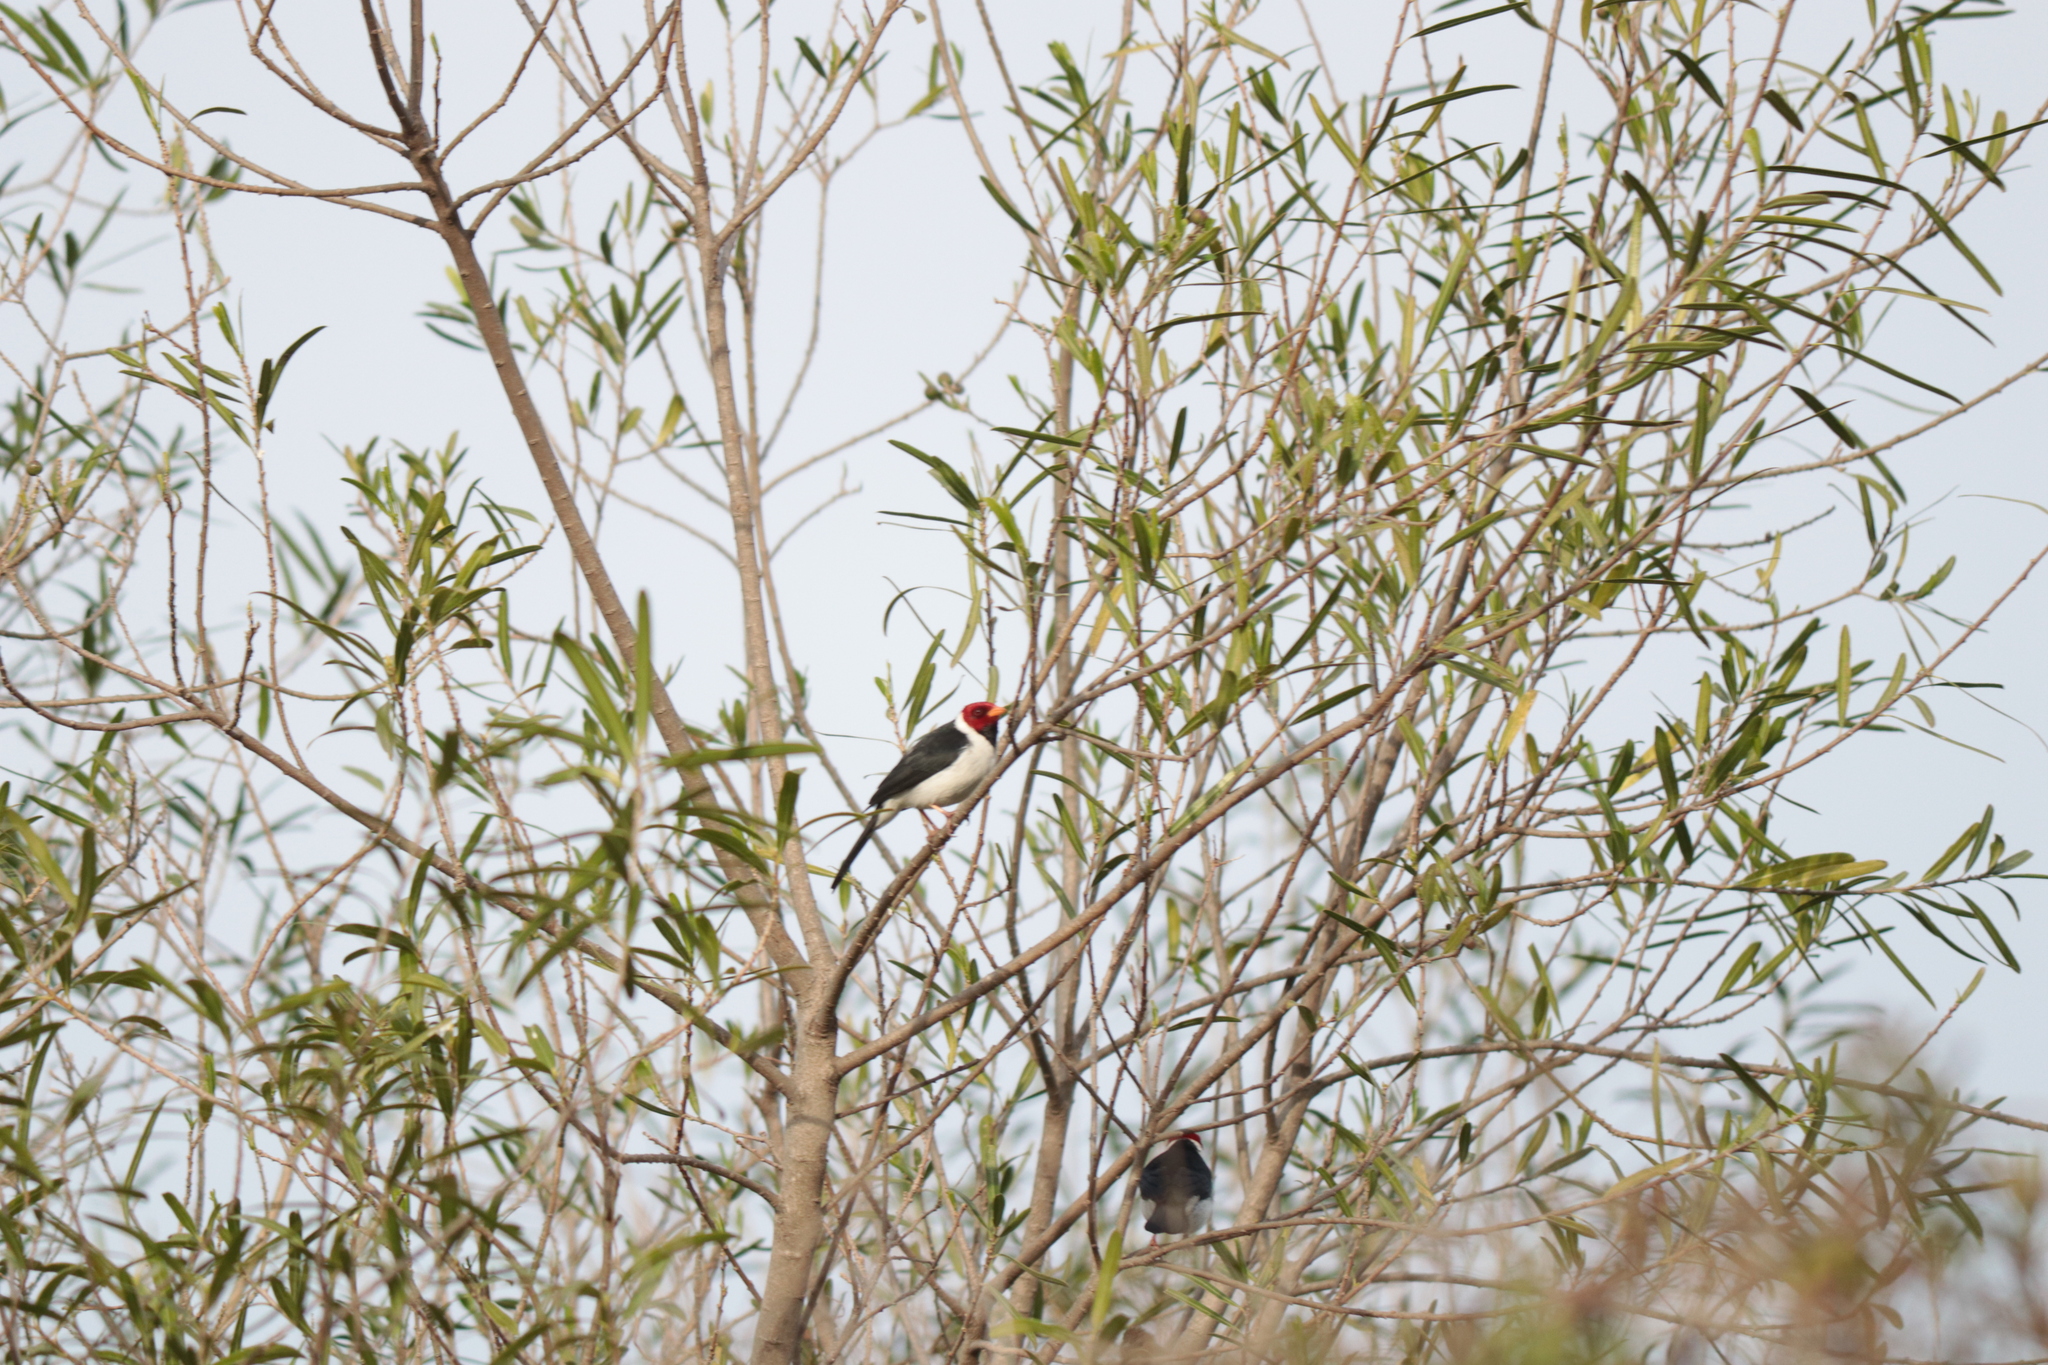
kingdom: Animalia
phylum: Chordata
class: Aves
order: Passeriformes
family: Thraupidae
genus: Paroaria
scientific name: Paroaria capitata
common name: Yellow-billed cardinal
